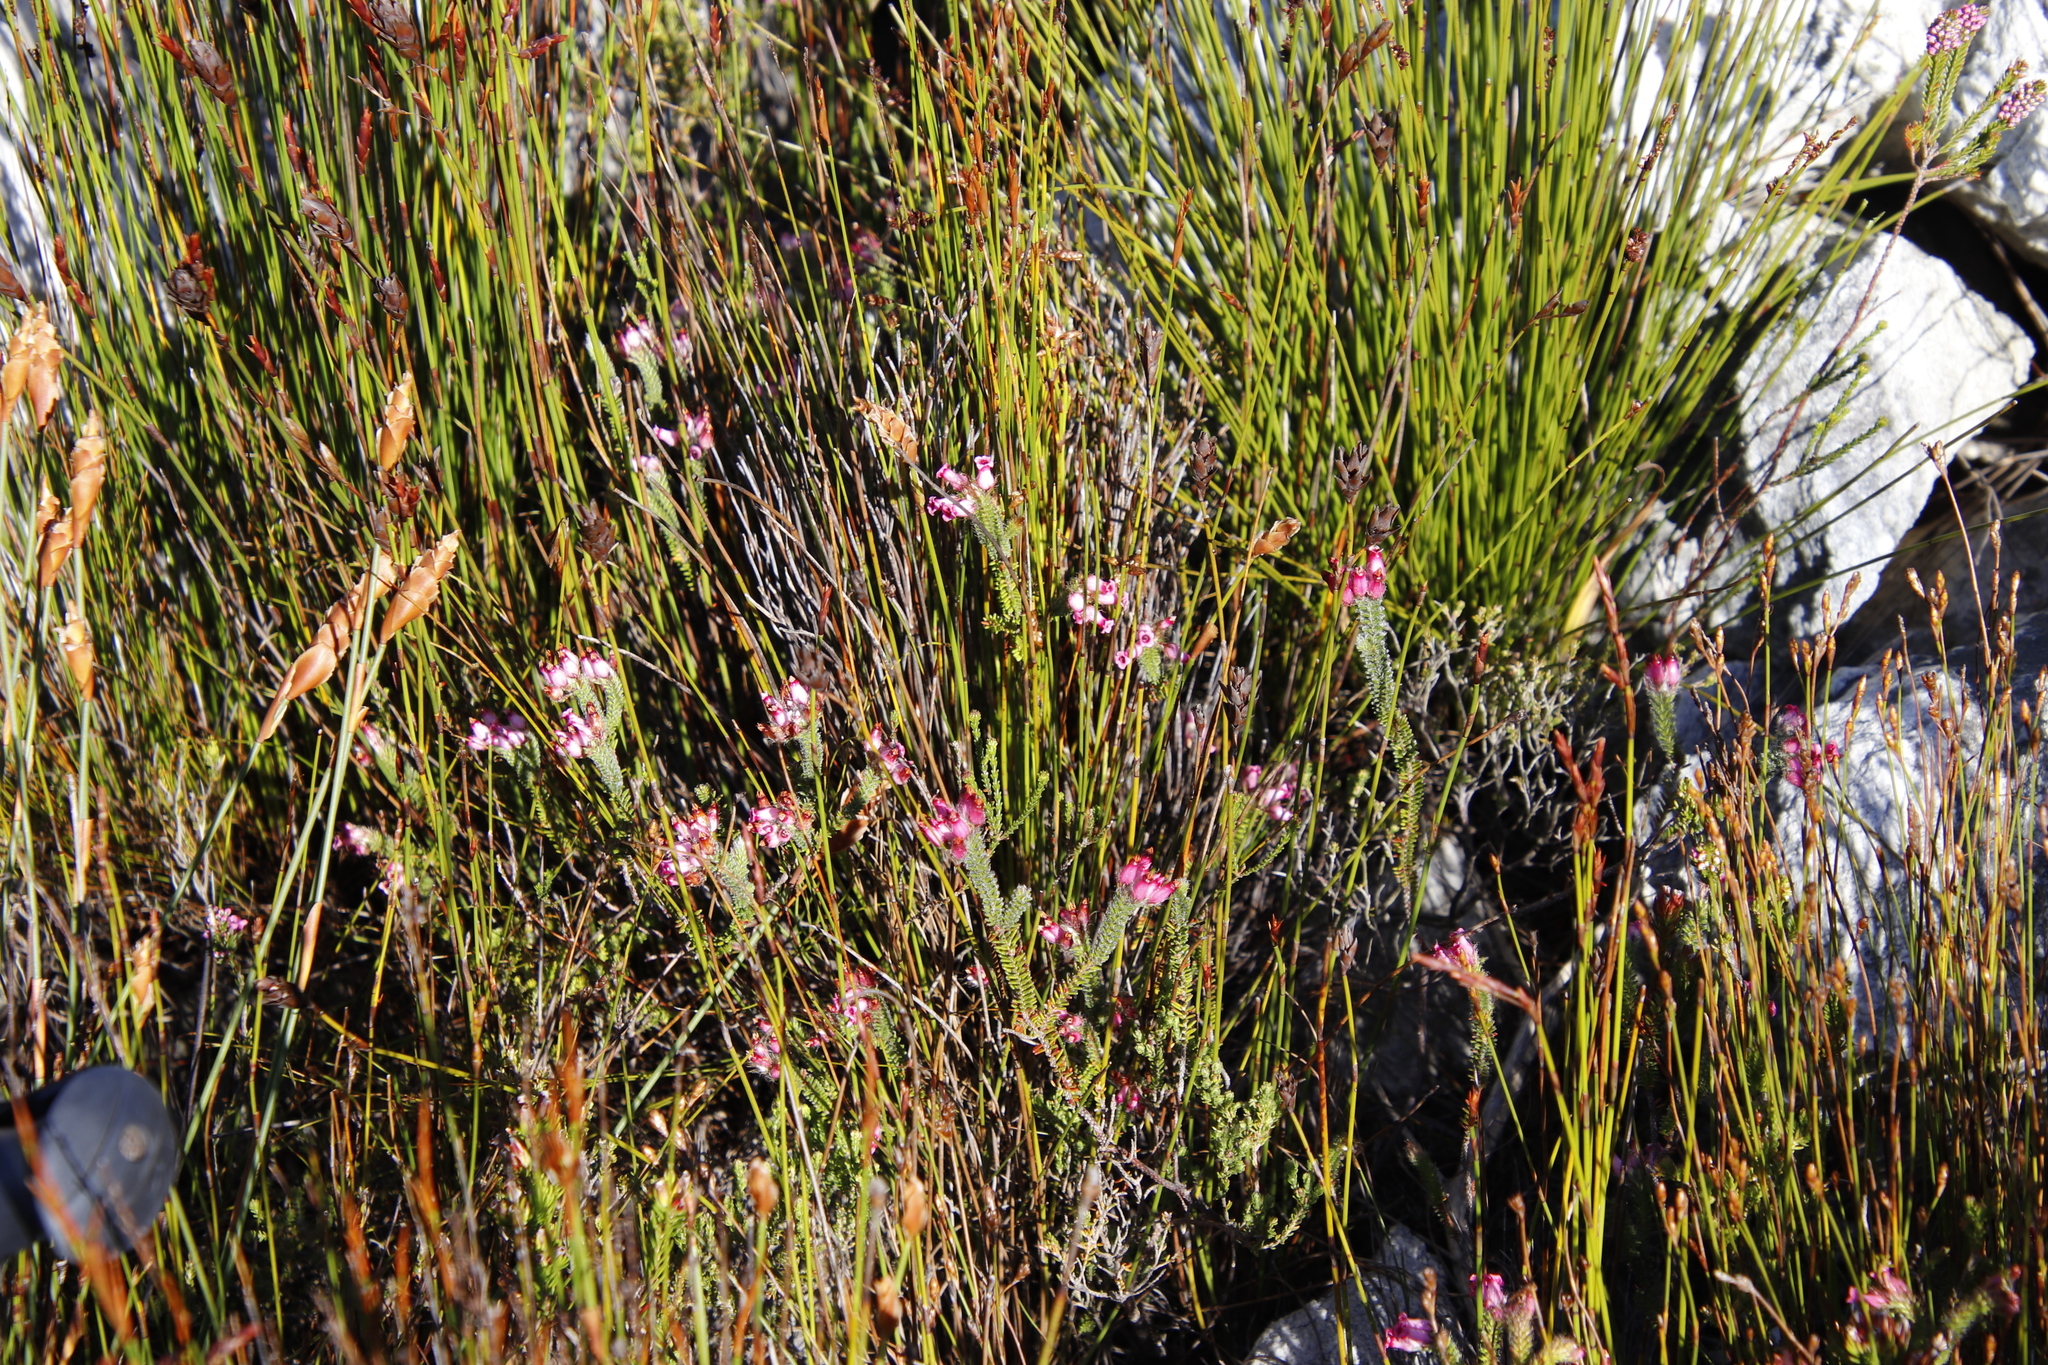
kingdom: Plantae
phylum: Tracheophyta
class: Magnoliopsida
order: Ericales
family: Ericaceae
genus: Erica
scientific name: Erica gysbertii
